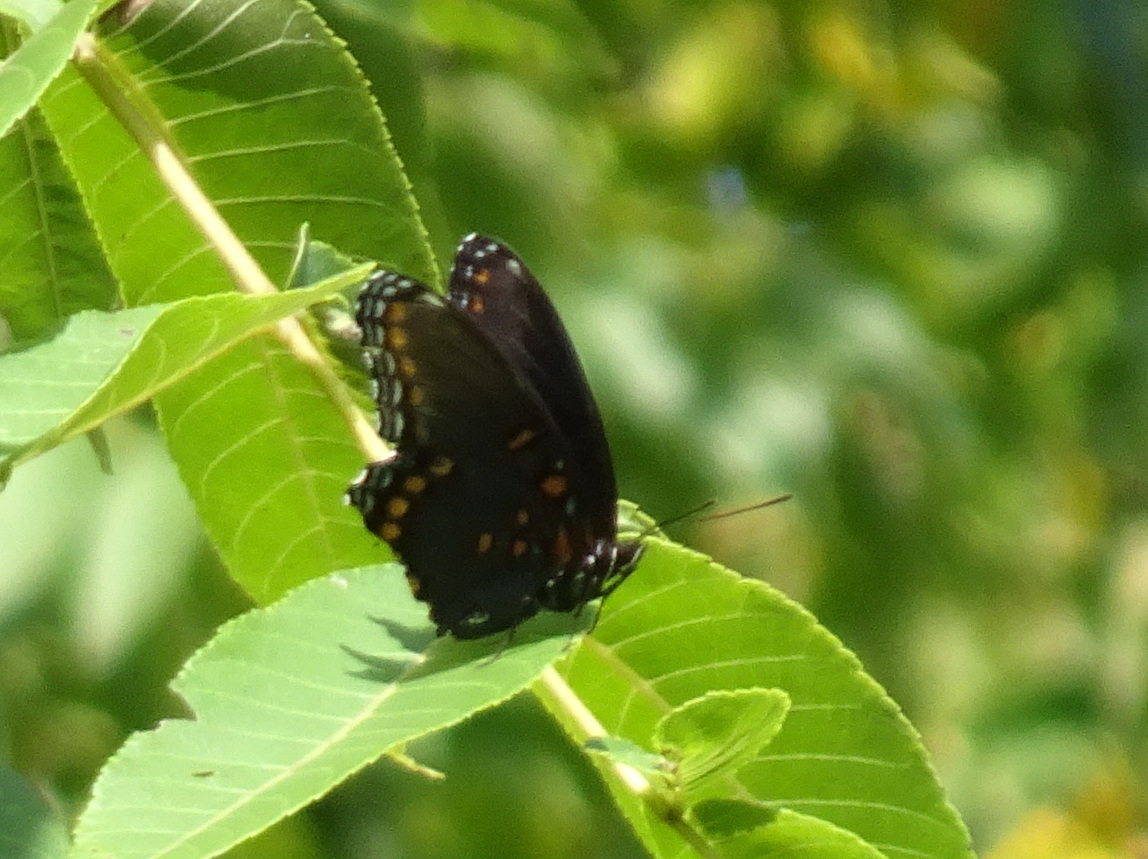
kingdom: Animalia
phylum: Arthropoda
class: Insecta
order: Lepidoptera
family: Nymphalidae
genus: Limenitis
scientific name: Limenitis arthemis
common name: Red-spotted admiral
